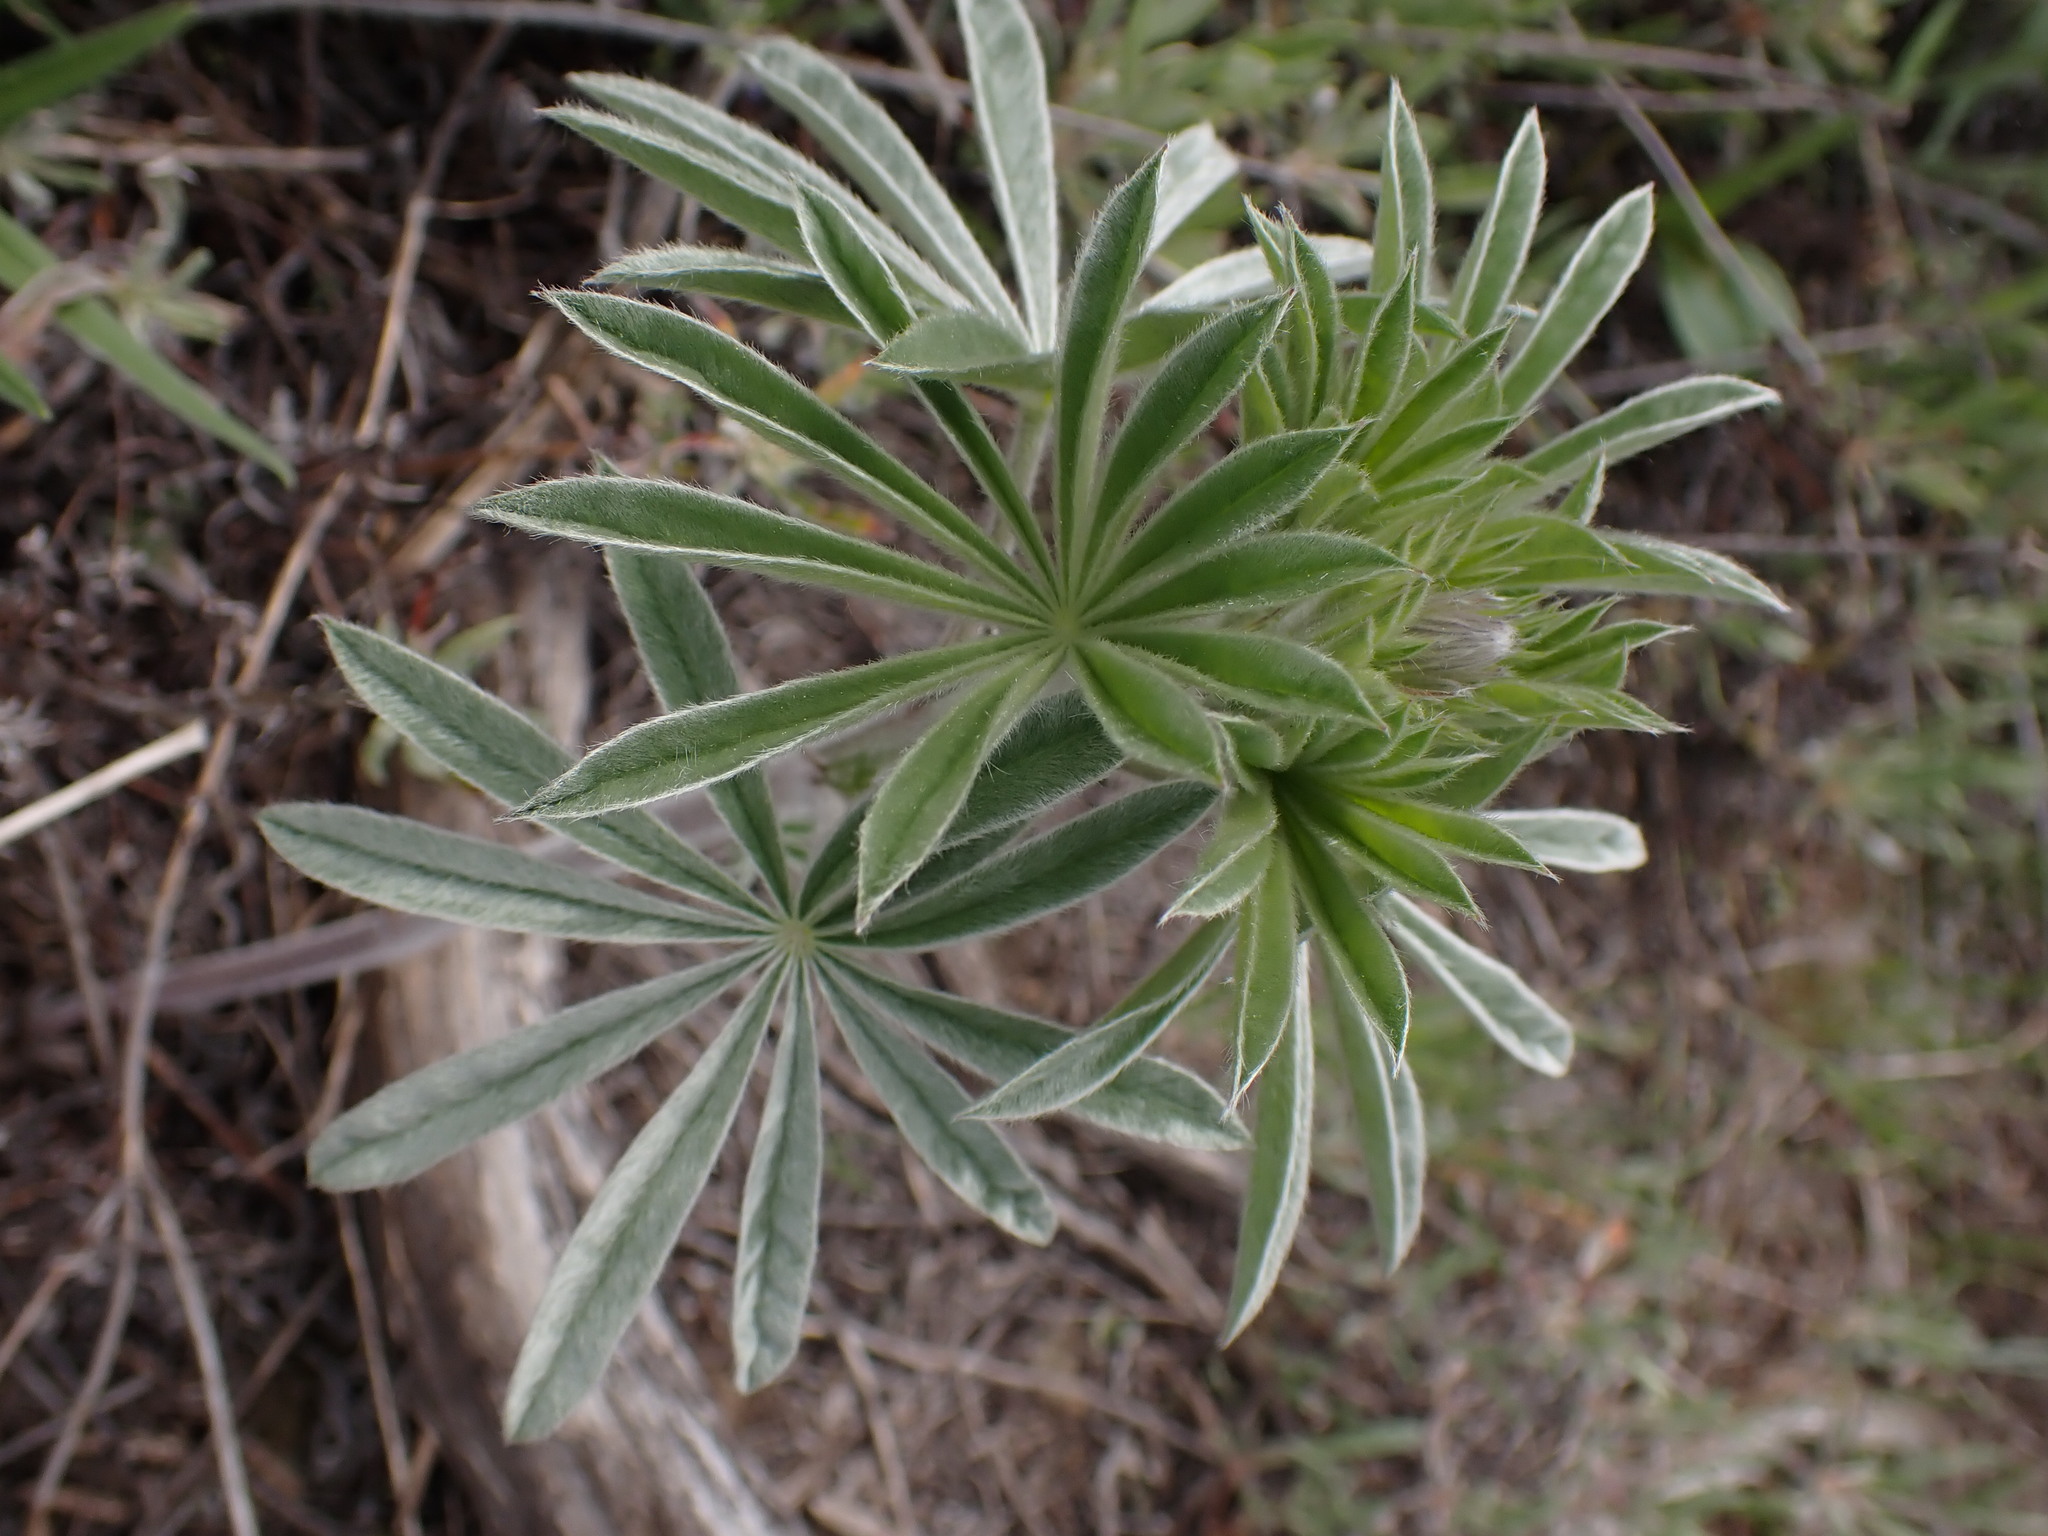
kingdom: Plantae
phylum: Tracheophyta
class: Magnoliopsida
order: Fabales
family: Fabaceae
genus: Lupinus
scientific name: Lupinus sericeus
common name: Silky lupine
